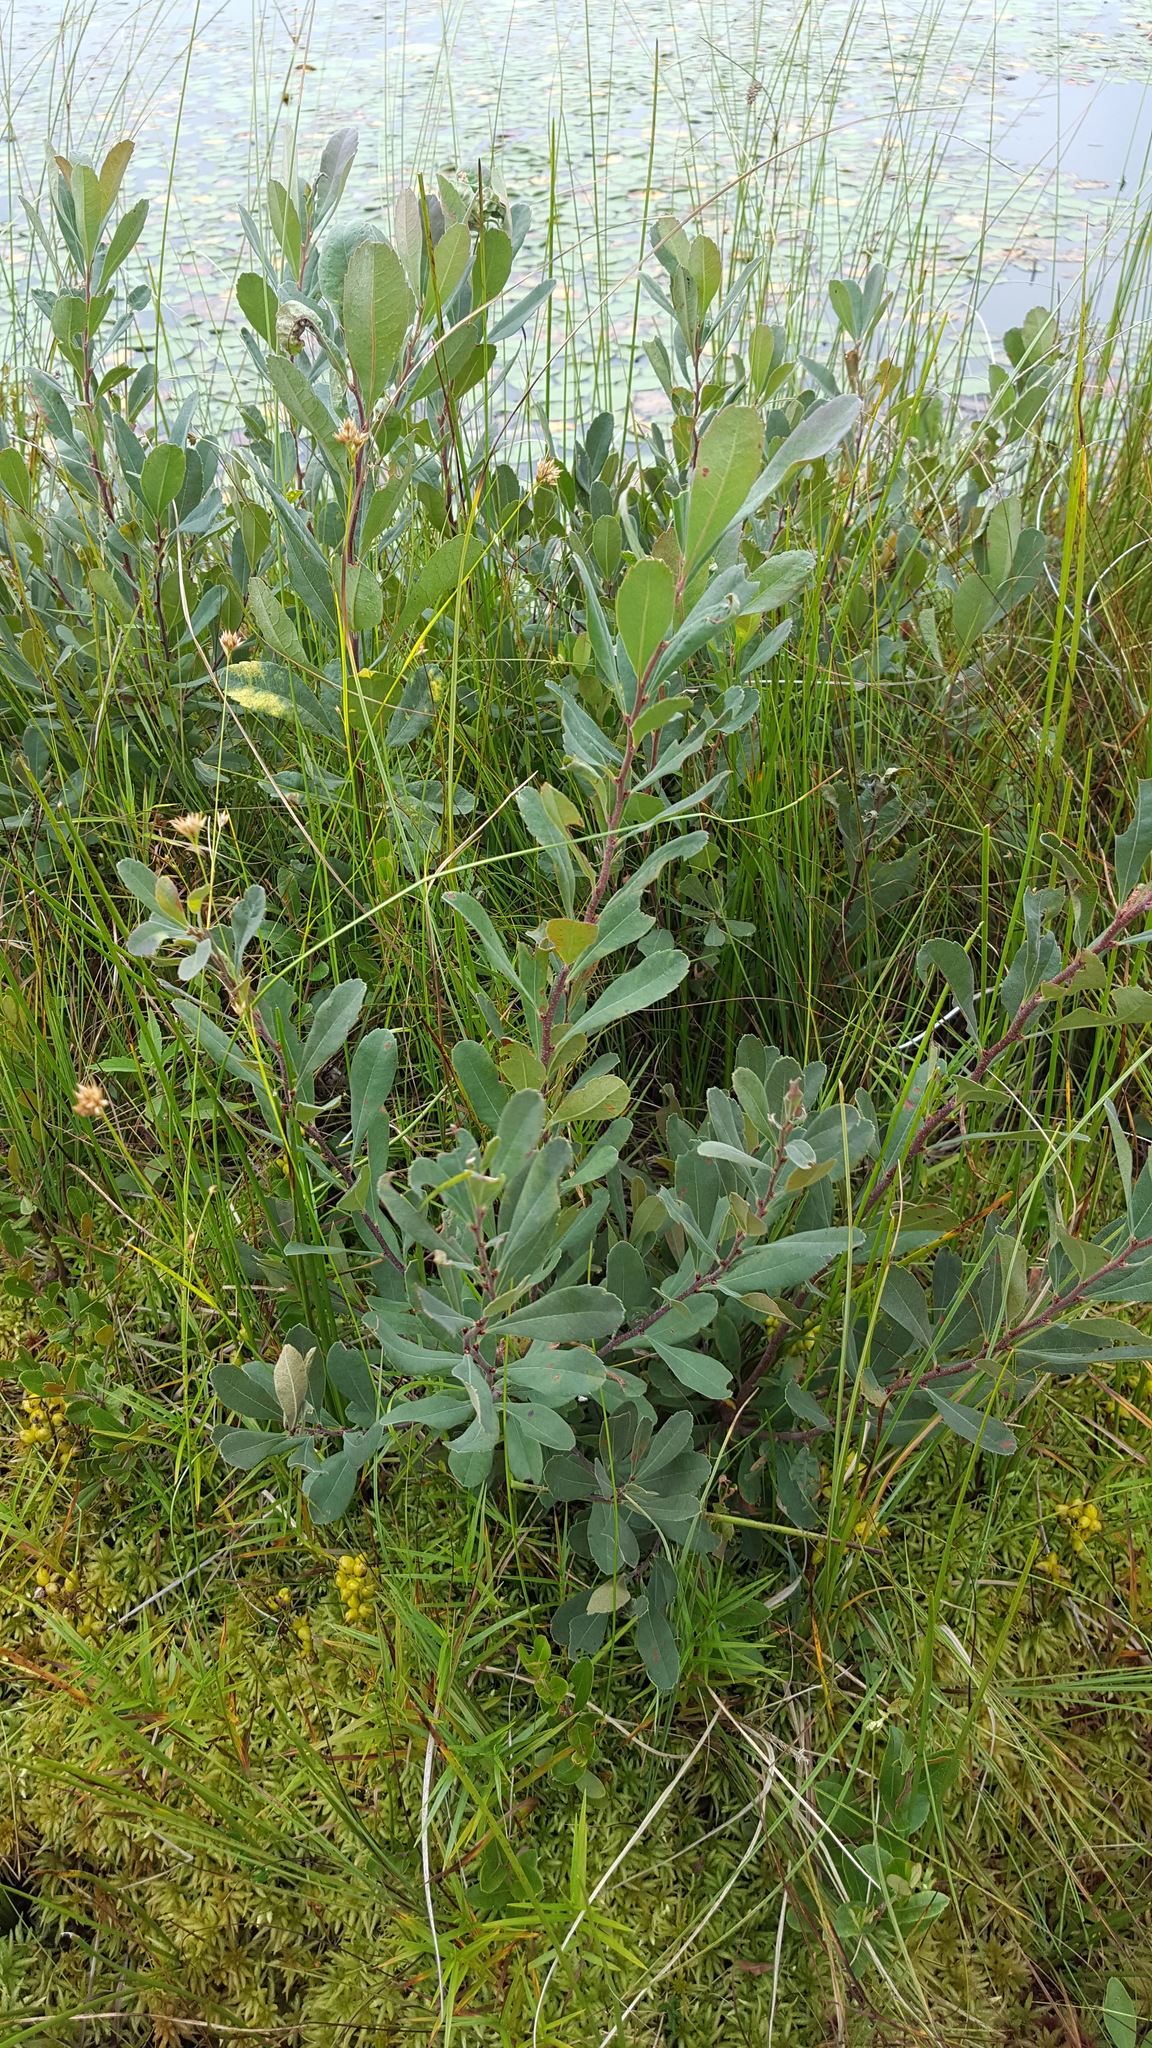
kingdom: Plantae
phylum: Tracheophyta
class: Magnoliopsida
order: Fagales
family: Myricaceae
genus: Myrica
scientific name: Myrica gale
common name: Sweet gale
